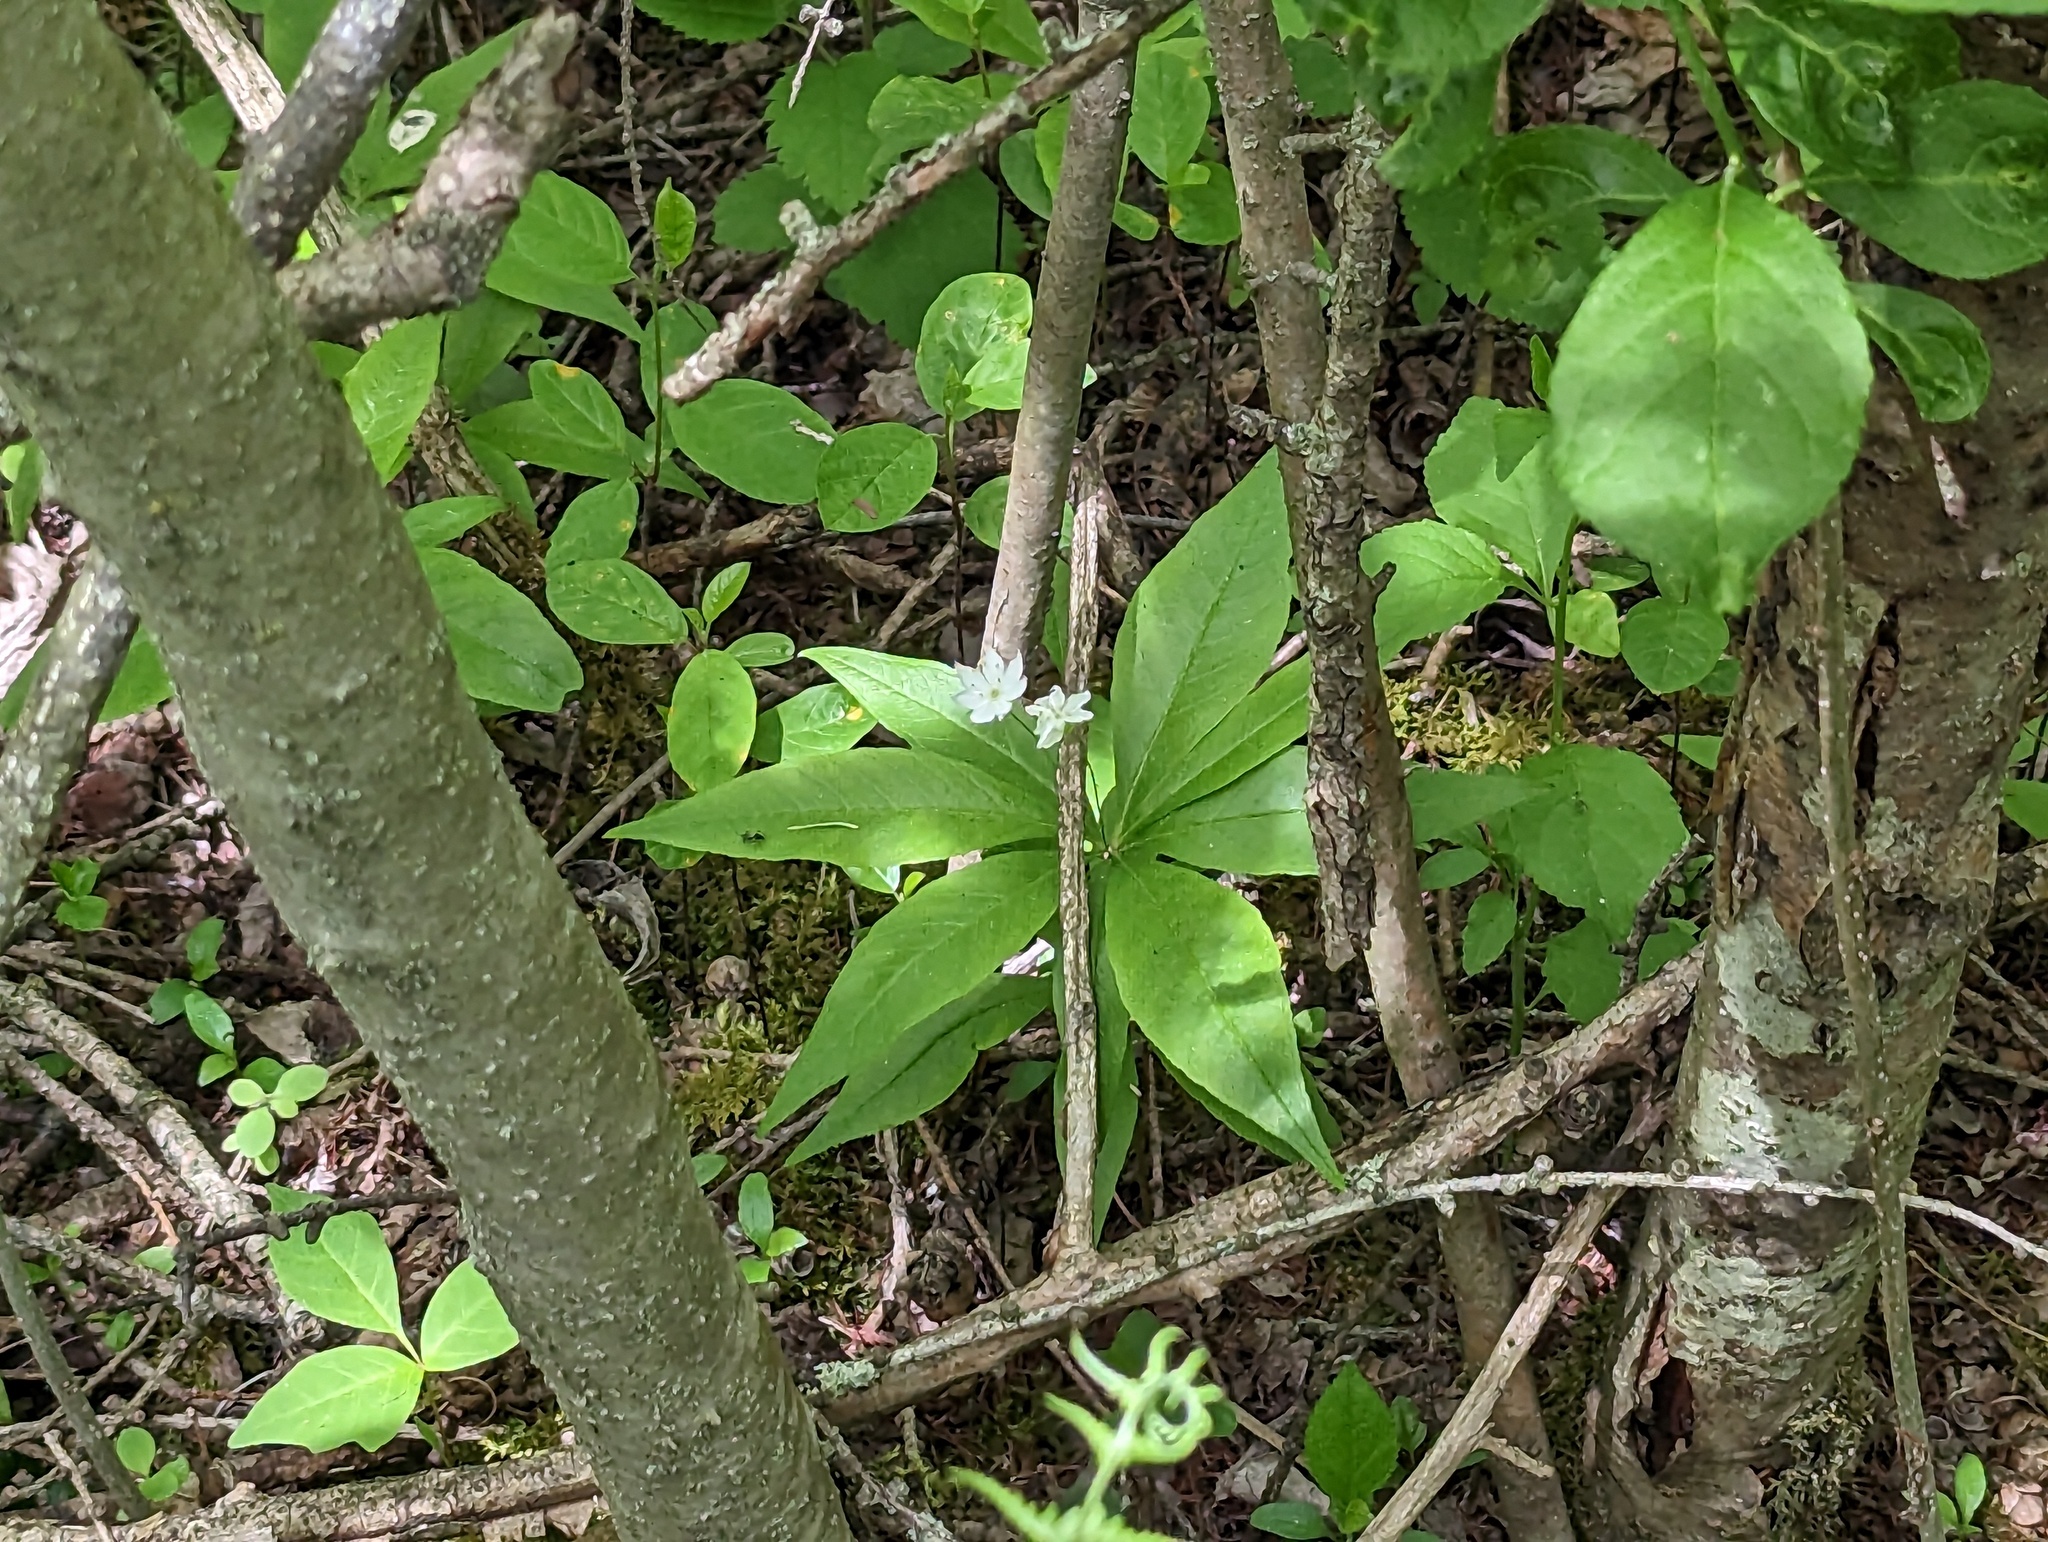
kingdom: Plantae
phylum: Tracheophyta
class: Magnoliopsida
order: Ericales
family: Primulaceae
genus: Lysimachia
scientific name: Lysimachia borealis
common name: American starflower
